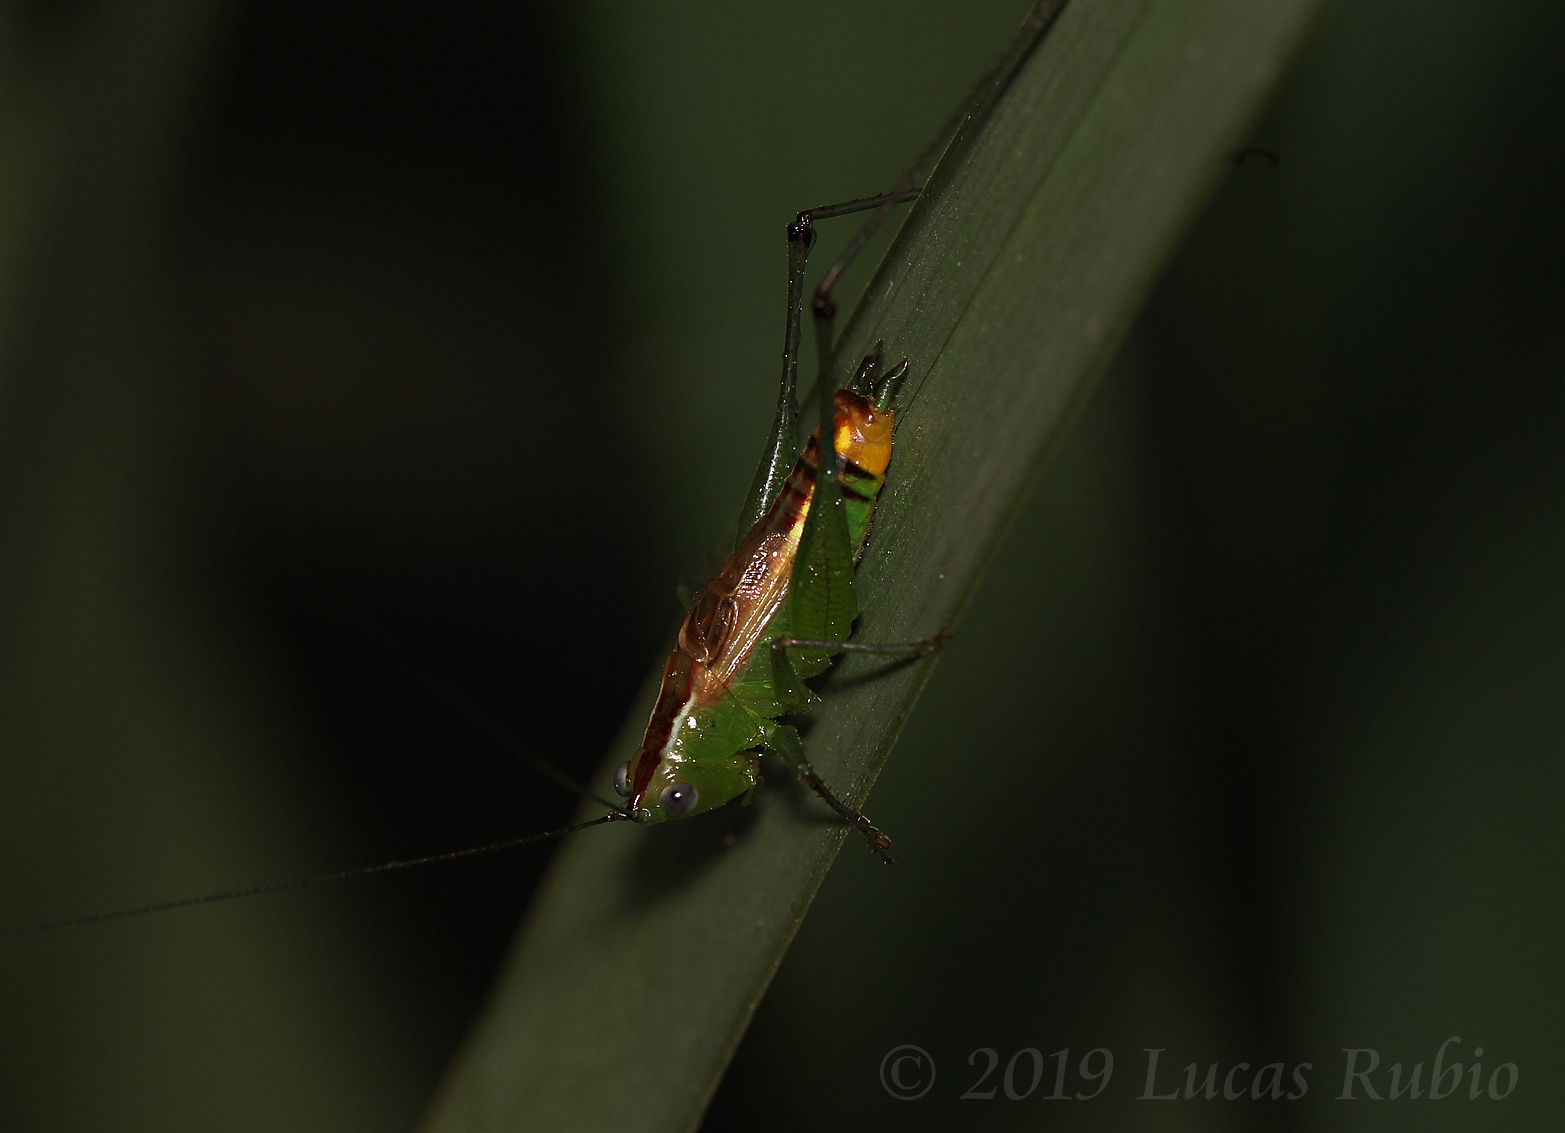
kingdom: Animalia
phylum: Arthropoda
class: Insecta
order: Orthoptera
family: Tettigoniidae
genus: Conocephalus
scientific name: Conocephalus ochrotelus
